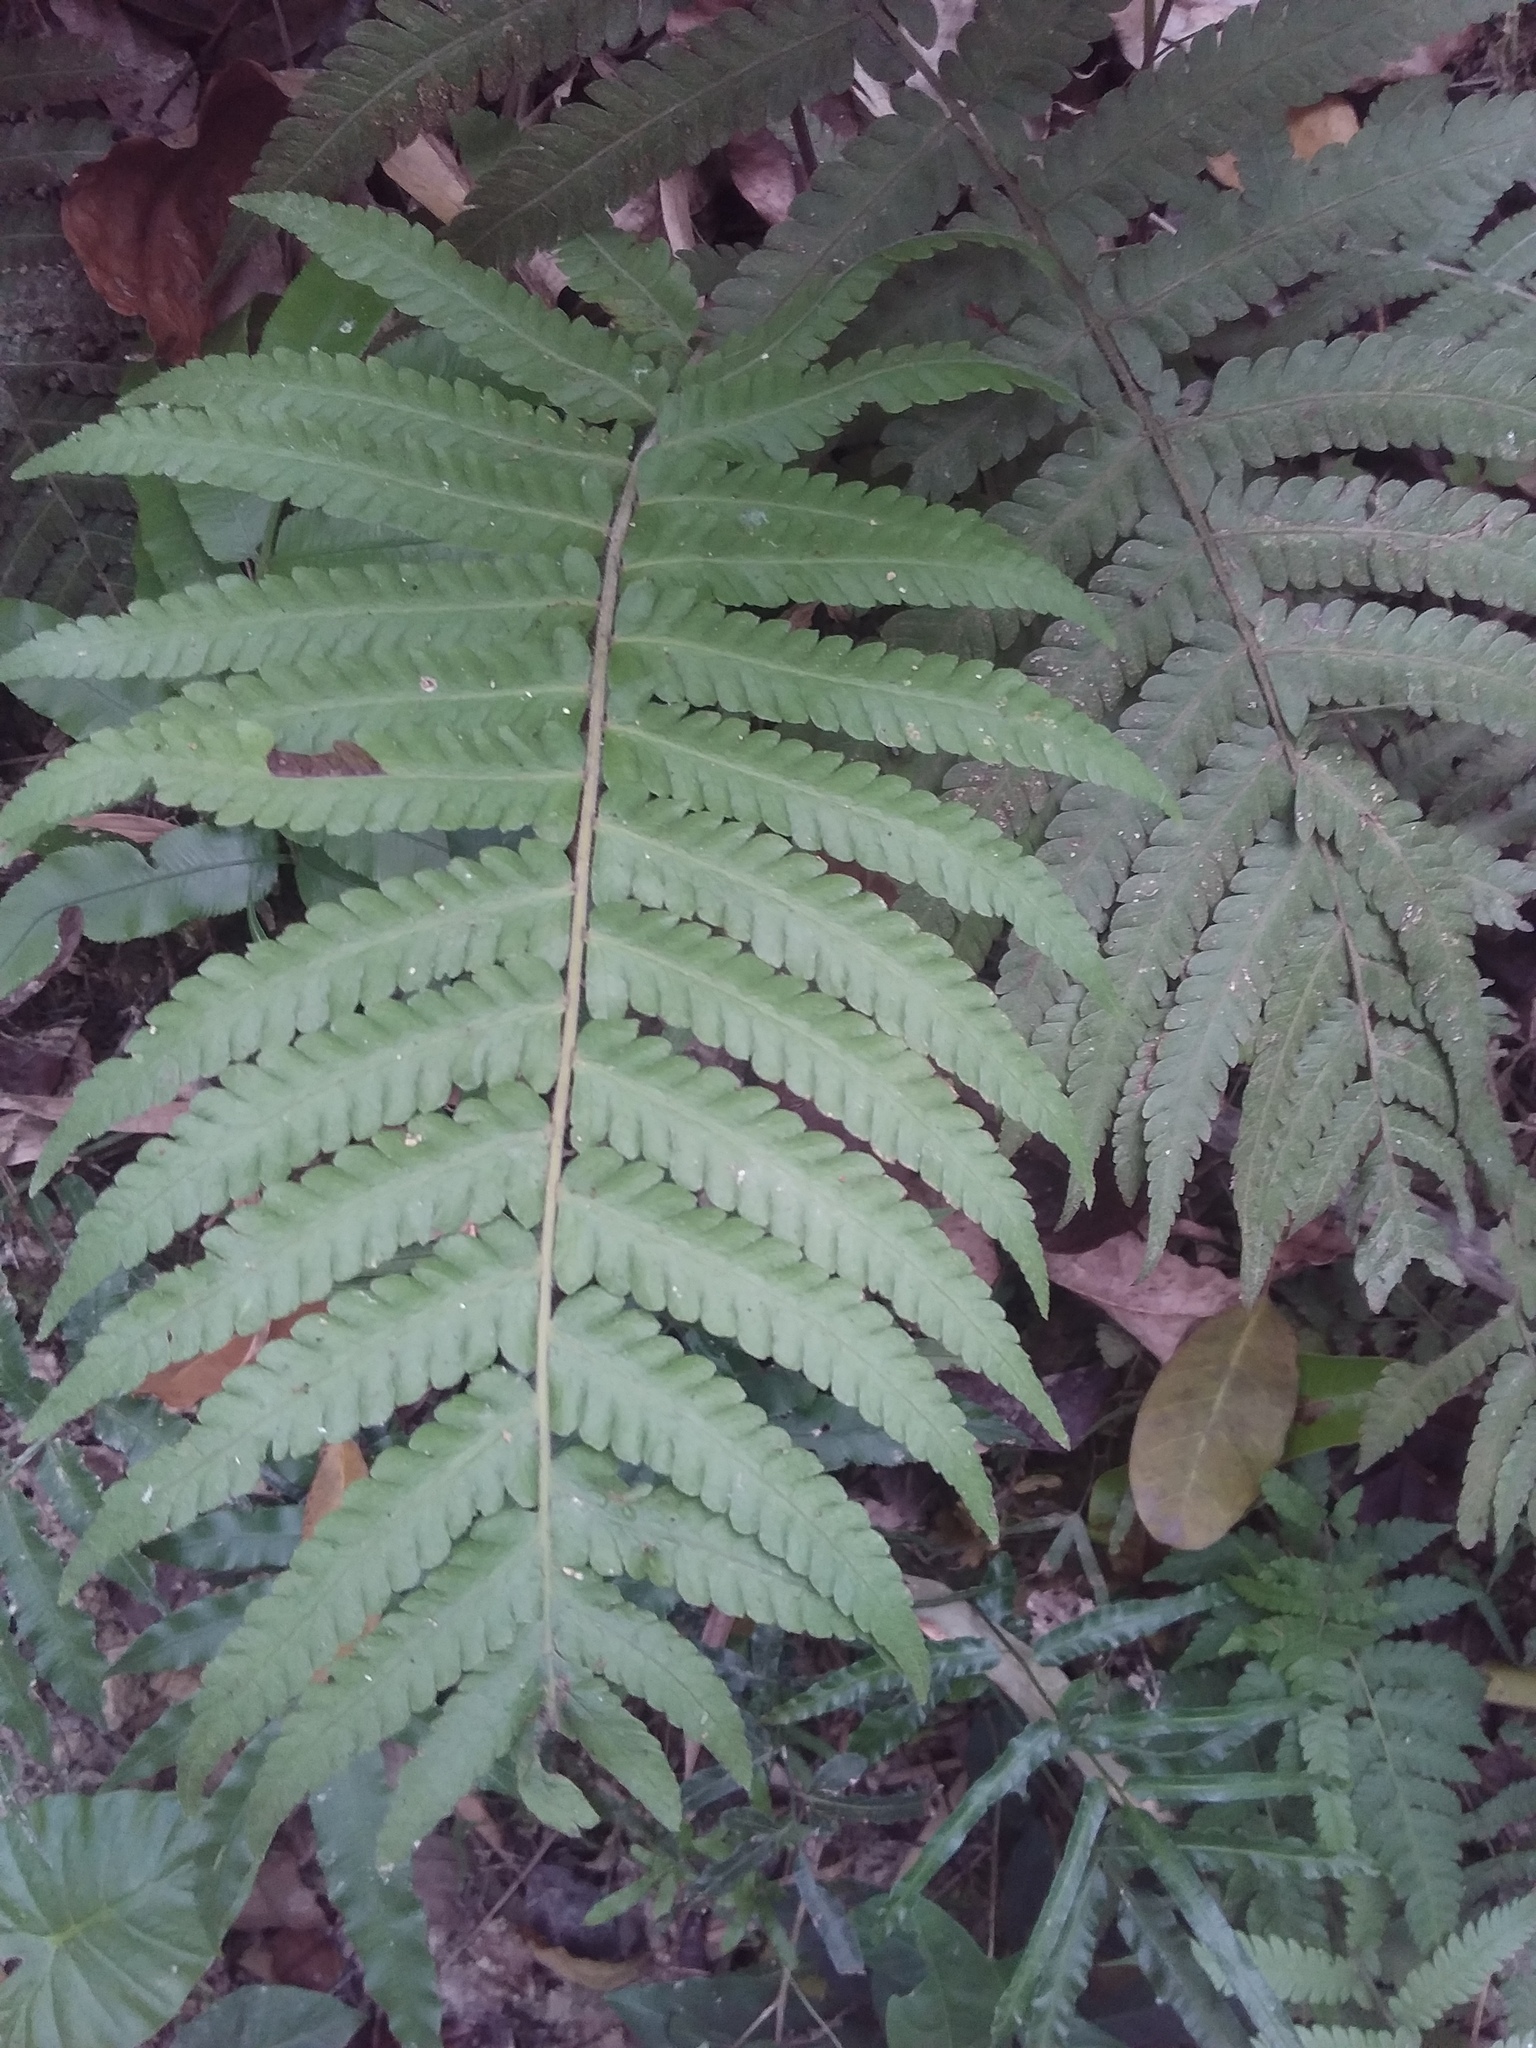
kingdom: Plantae
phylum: Tracheophyta
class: Polypodiopsida
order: Polypodiales
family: Thelypteridaceae
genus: Christella
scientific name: Christella parasitica
